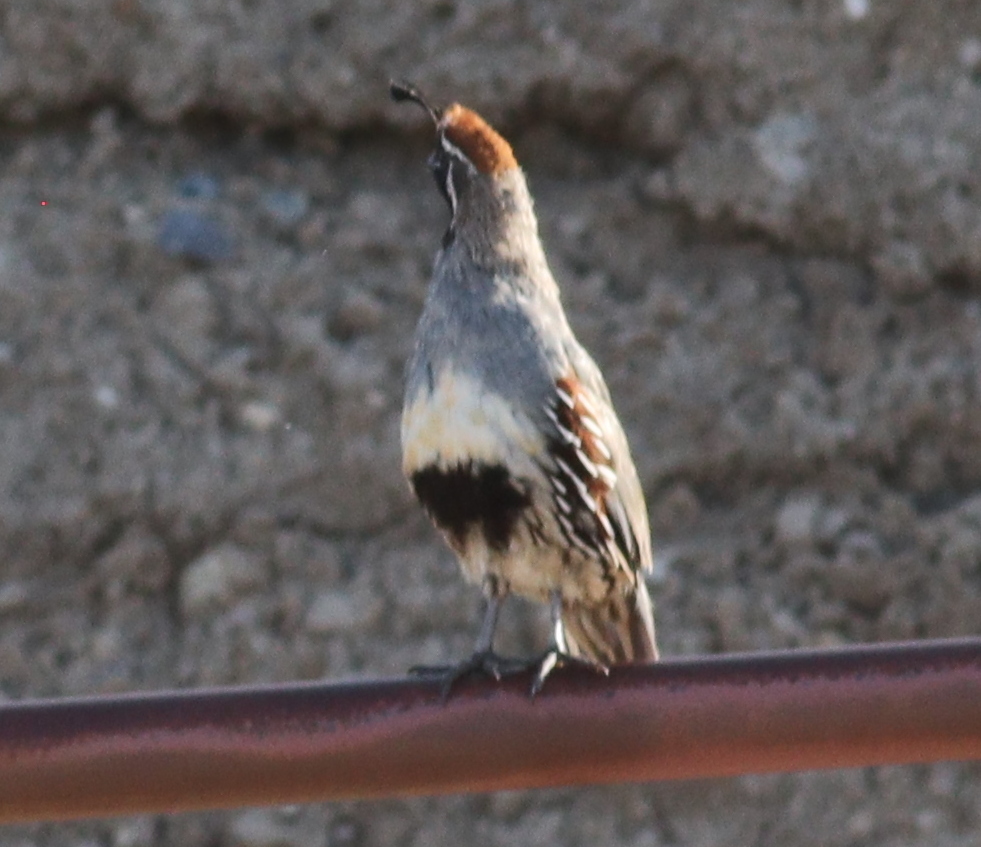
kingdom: Animalia
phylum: Chordata
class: Aves
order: Galliformes
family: Odontophoridae
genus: Callipepla
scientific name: Callipepla gambelii
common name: Gambel's quail
